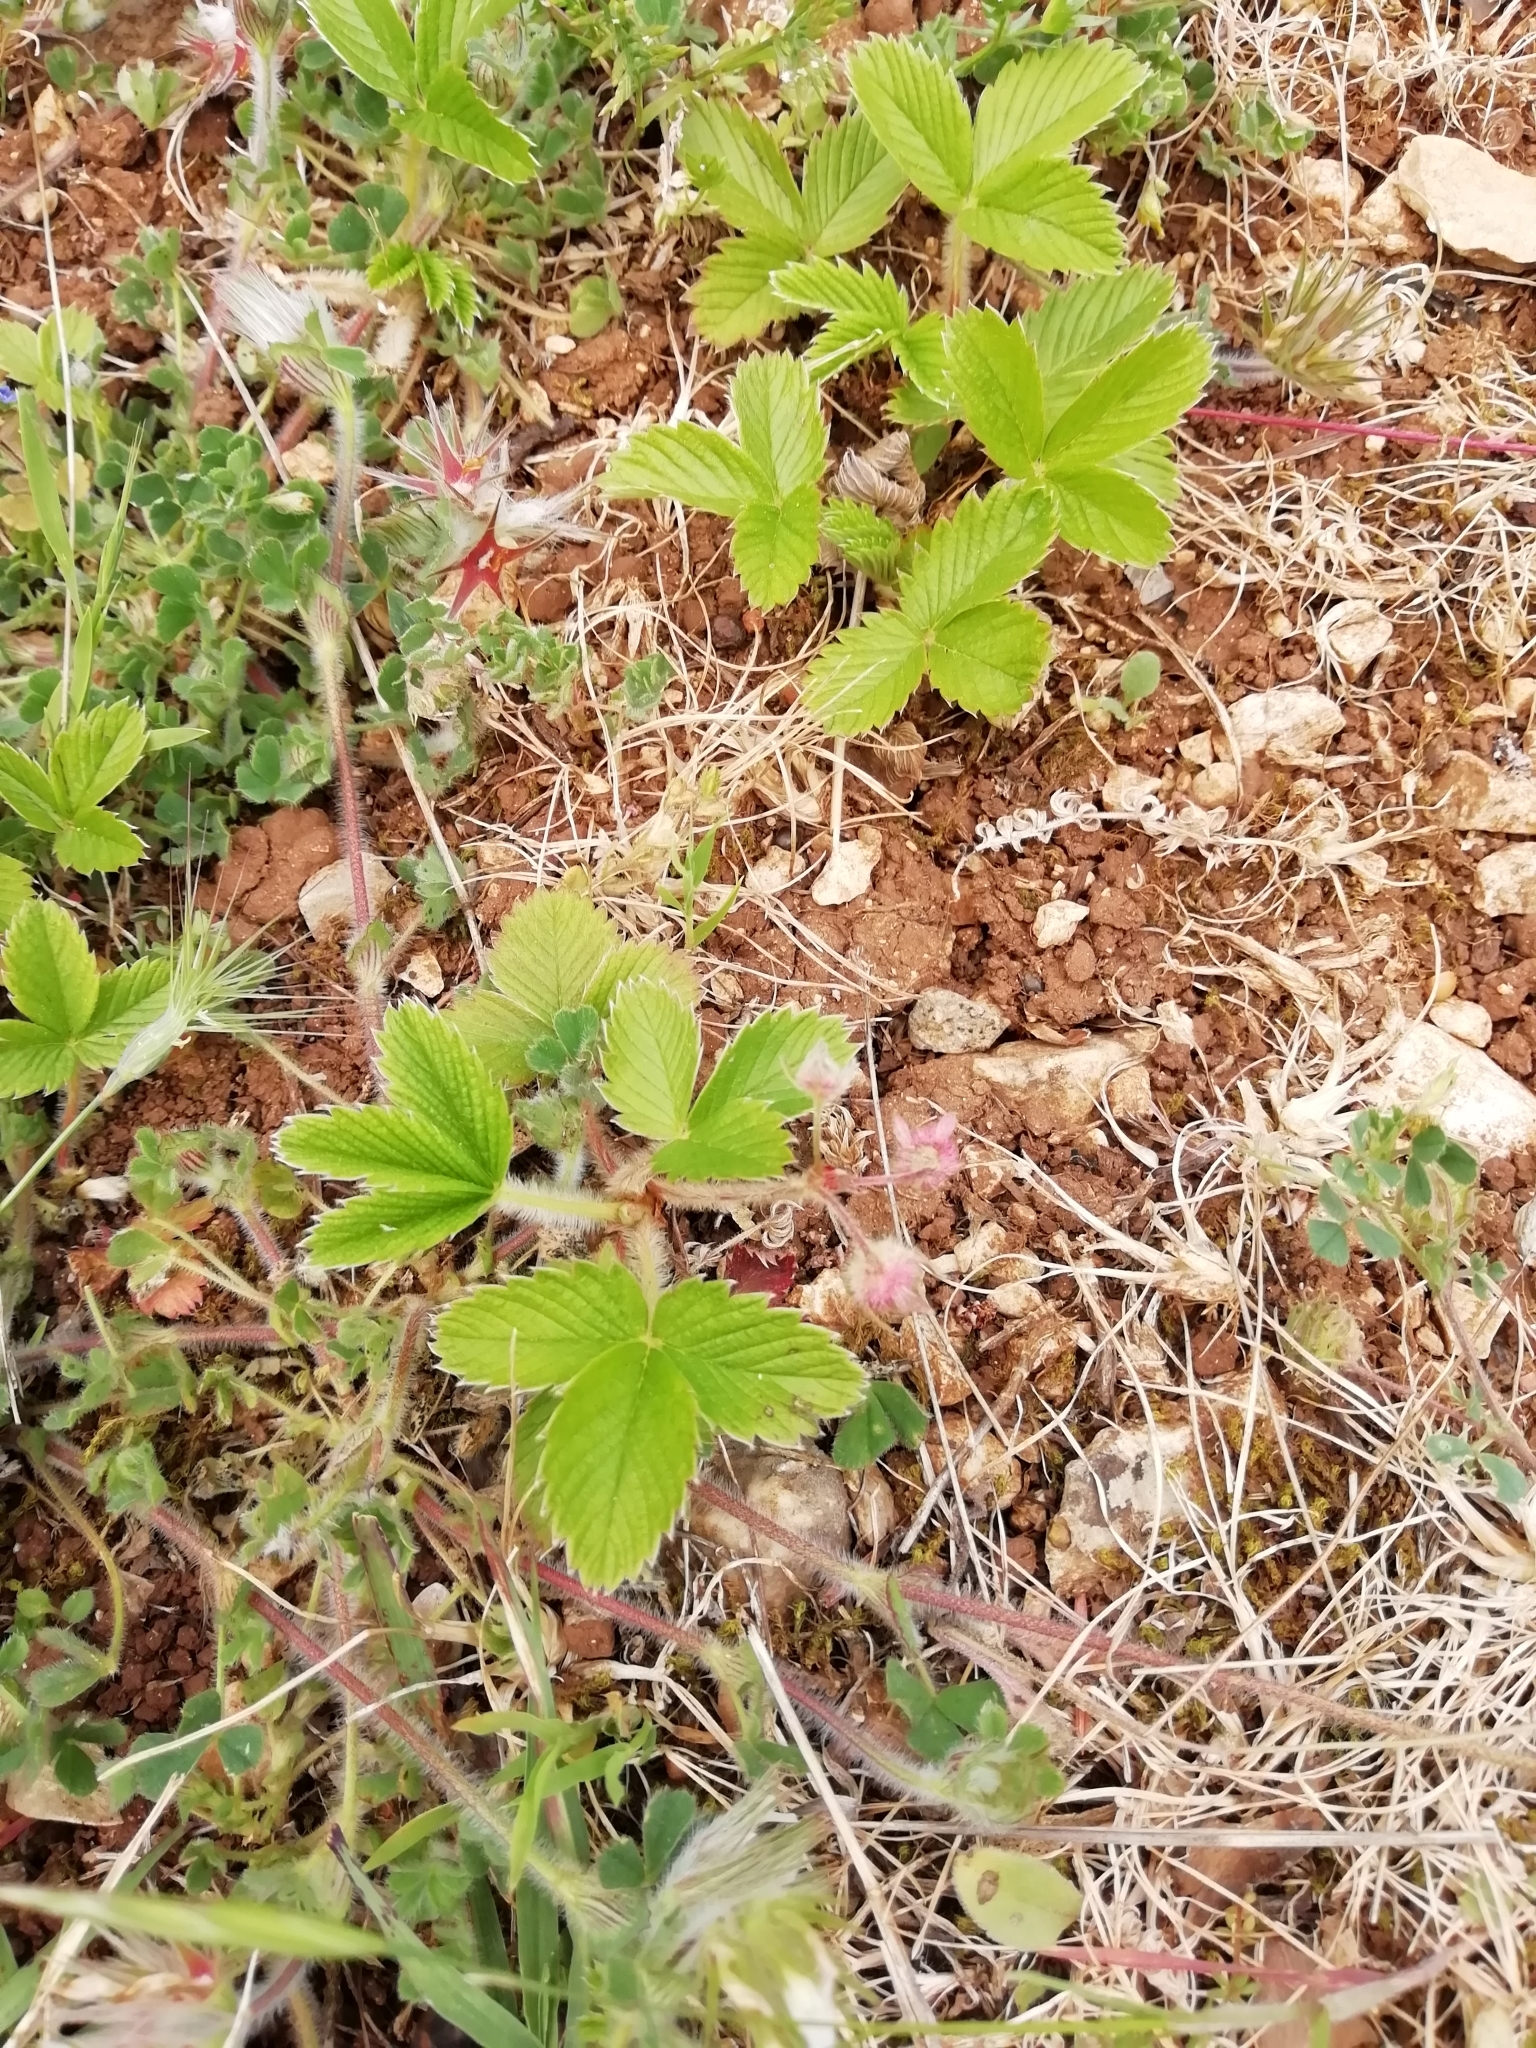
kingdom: Plantae
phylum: Tracheophyta
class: Magnoliopsida
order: Rosales
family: Rosaceae
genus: Fragaria
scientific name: Fragaria viridis
